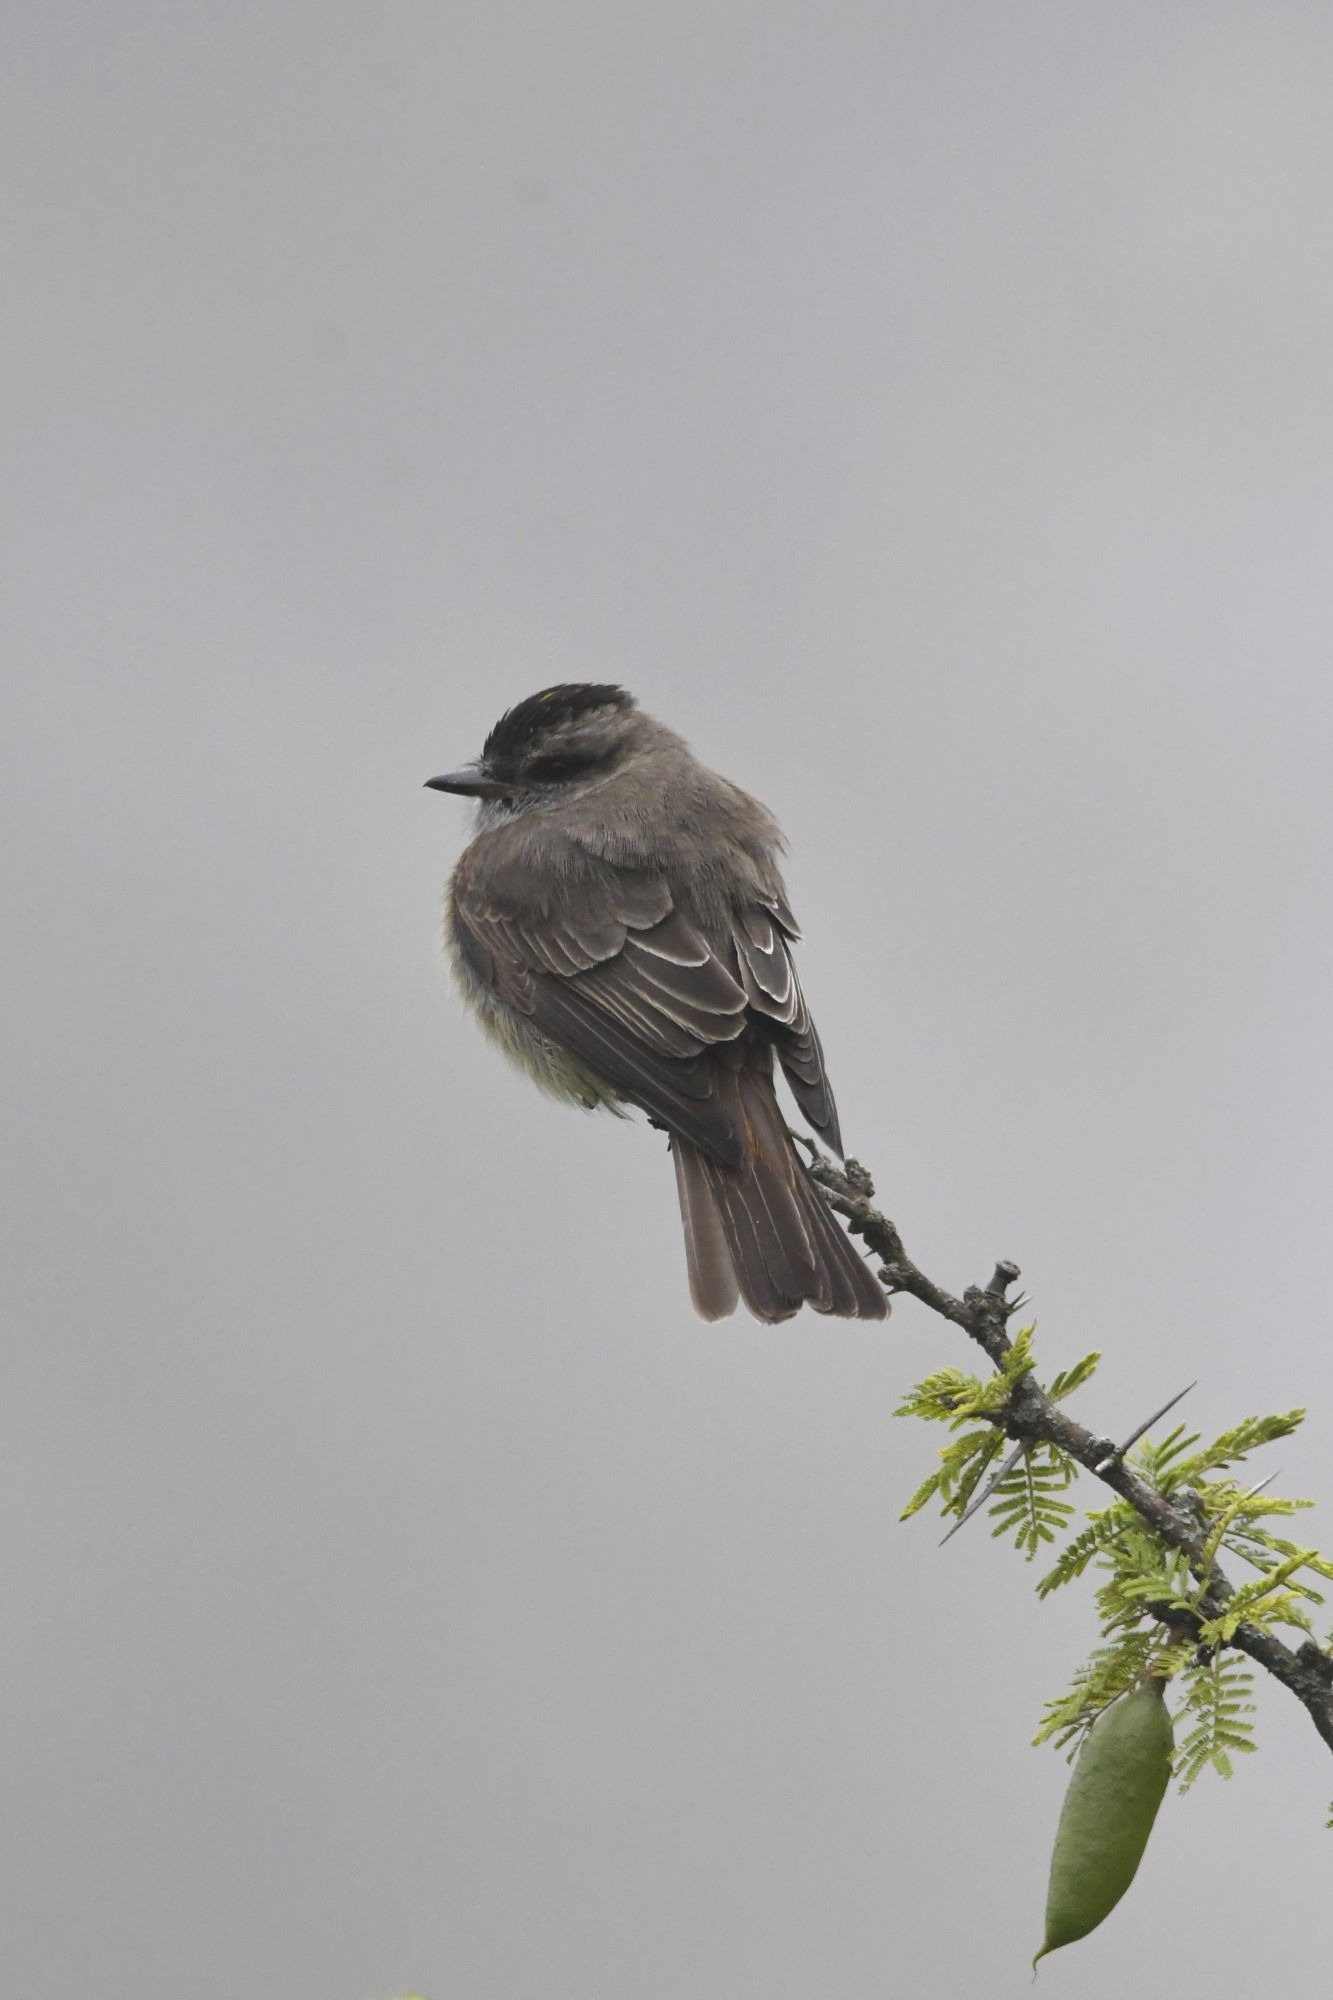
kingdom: Animalia
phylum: Chordata
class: Aves
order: Passeriformes
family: Tyrannidae
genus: Empidonomus
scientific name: Empidonomus aurantioatrocristatus
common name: Crowned slaty flycatcher
